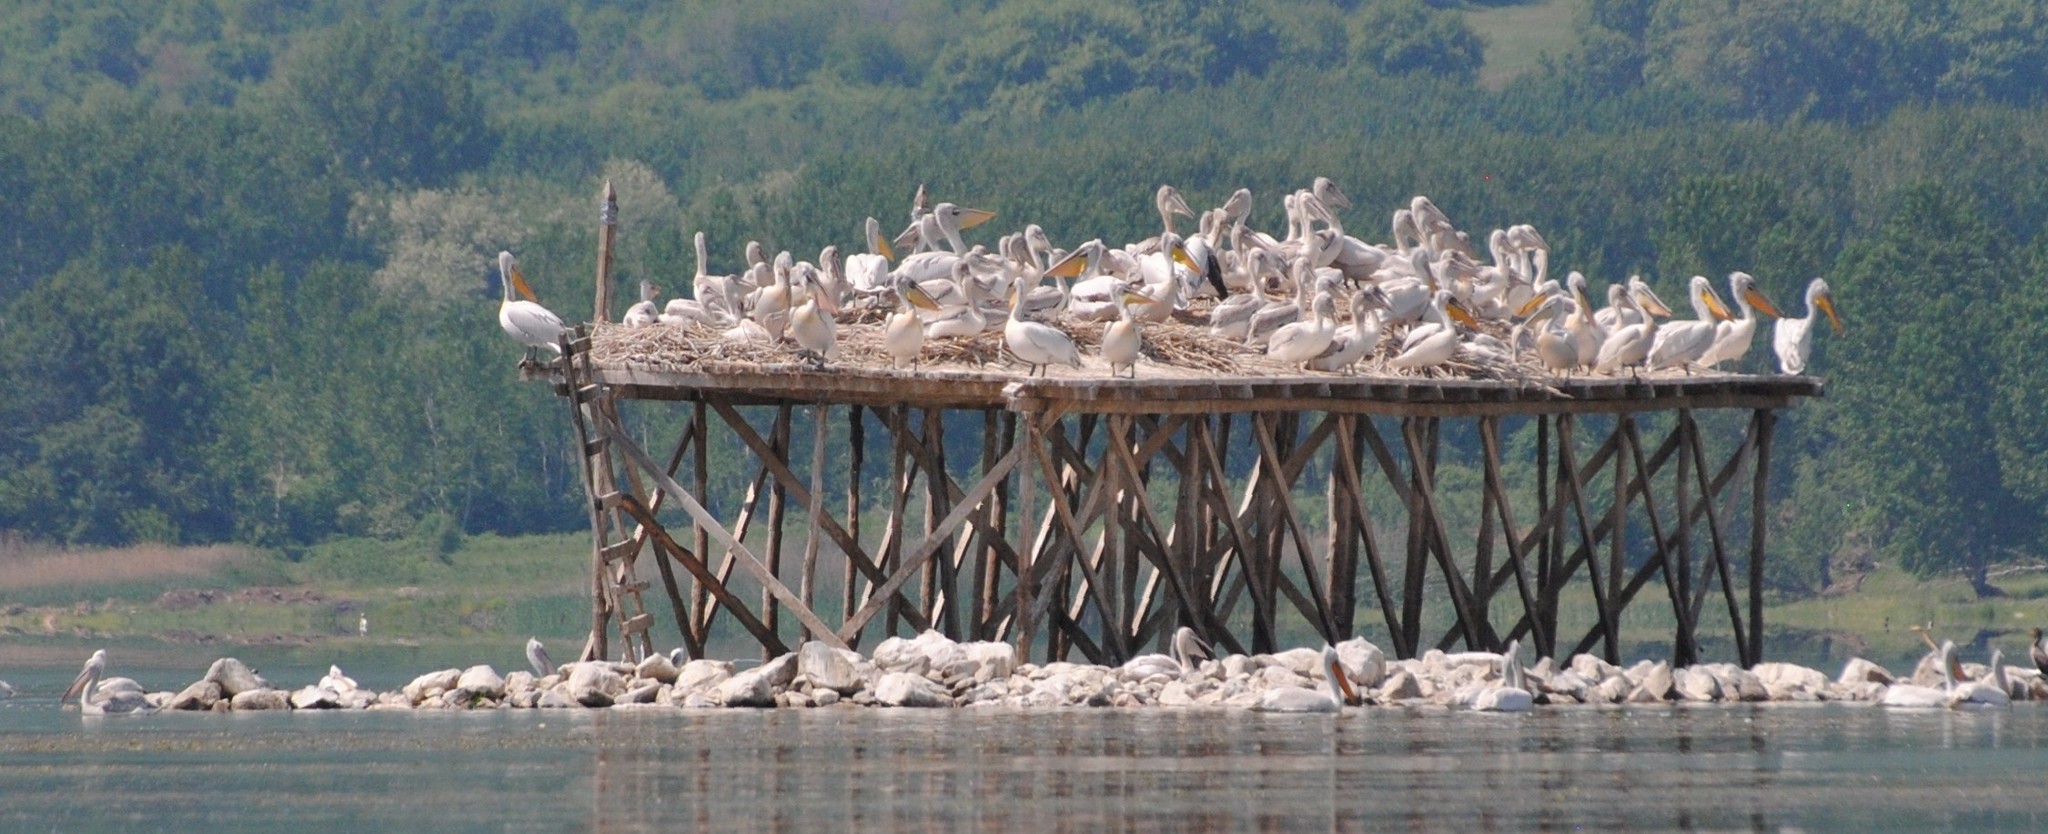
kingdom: Animalia
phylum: Chordata
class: Aves
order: Pelecaniformes
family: Pelecanidae
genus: Pelecanus
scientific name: Pelecanus crispus
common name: Dalmatian pelican
